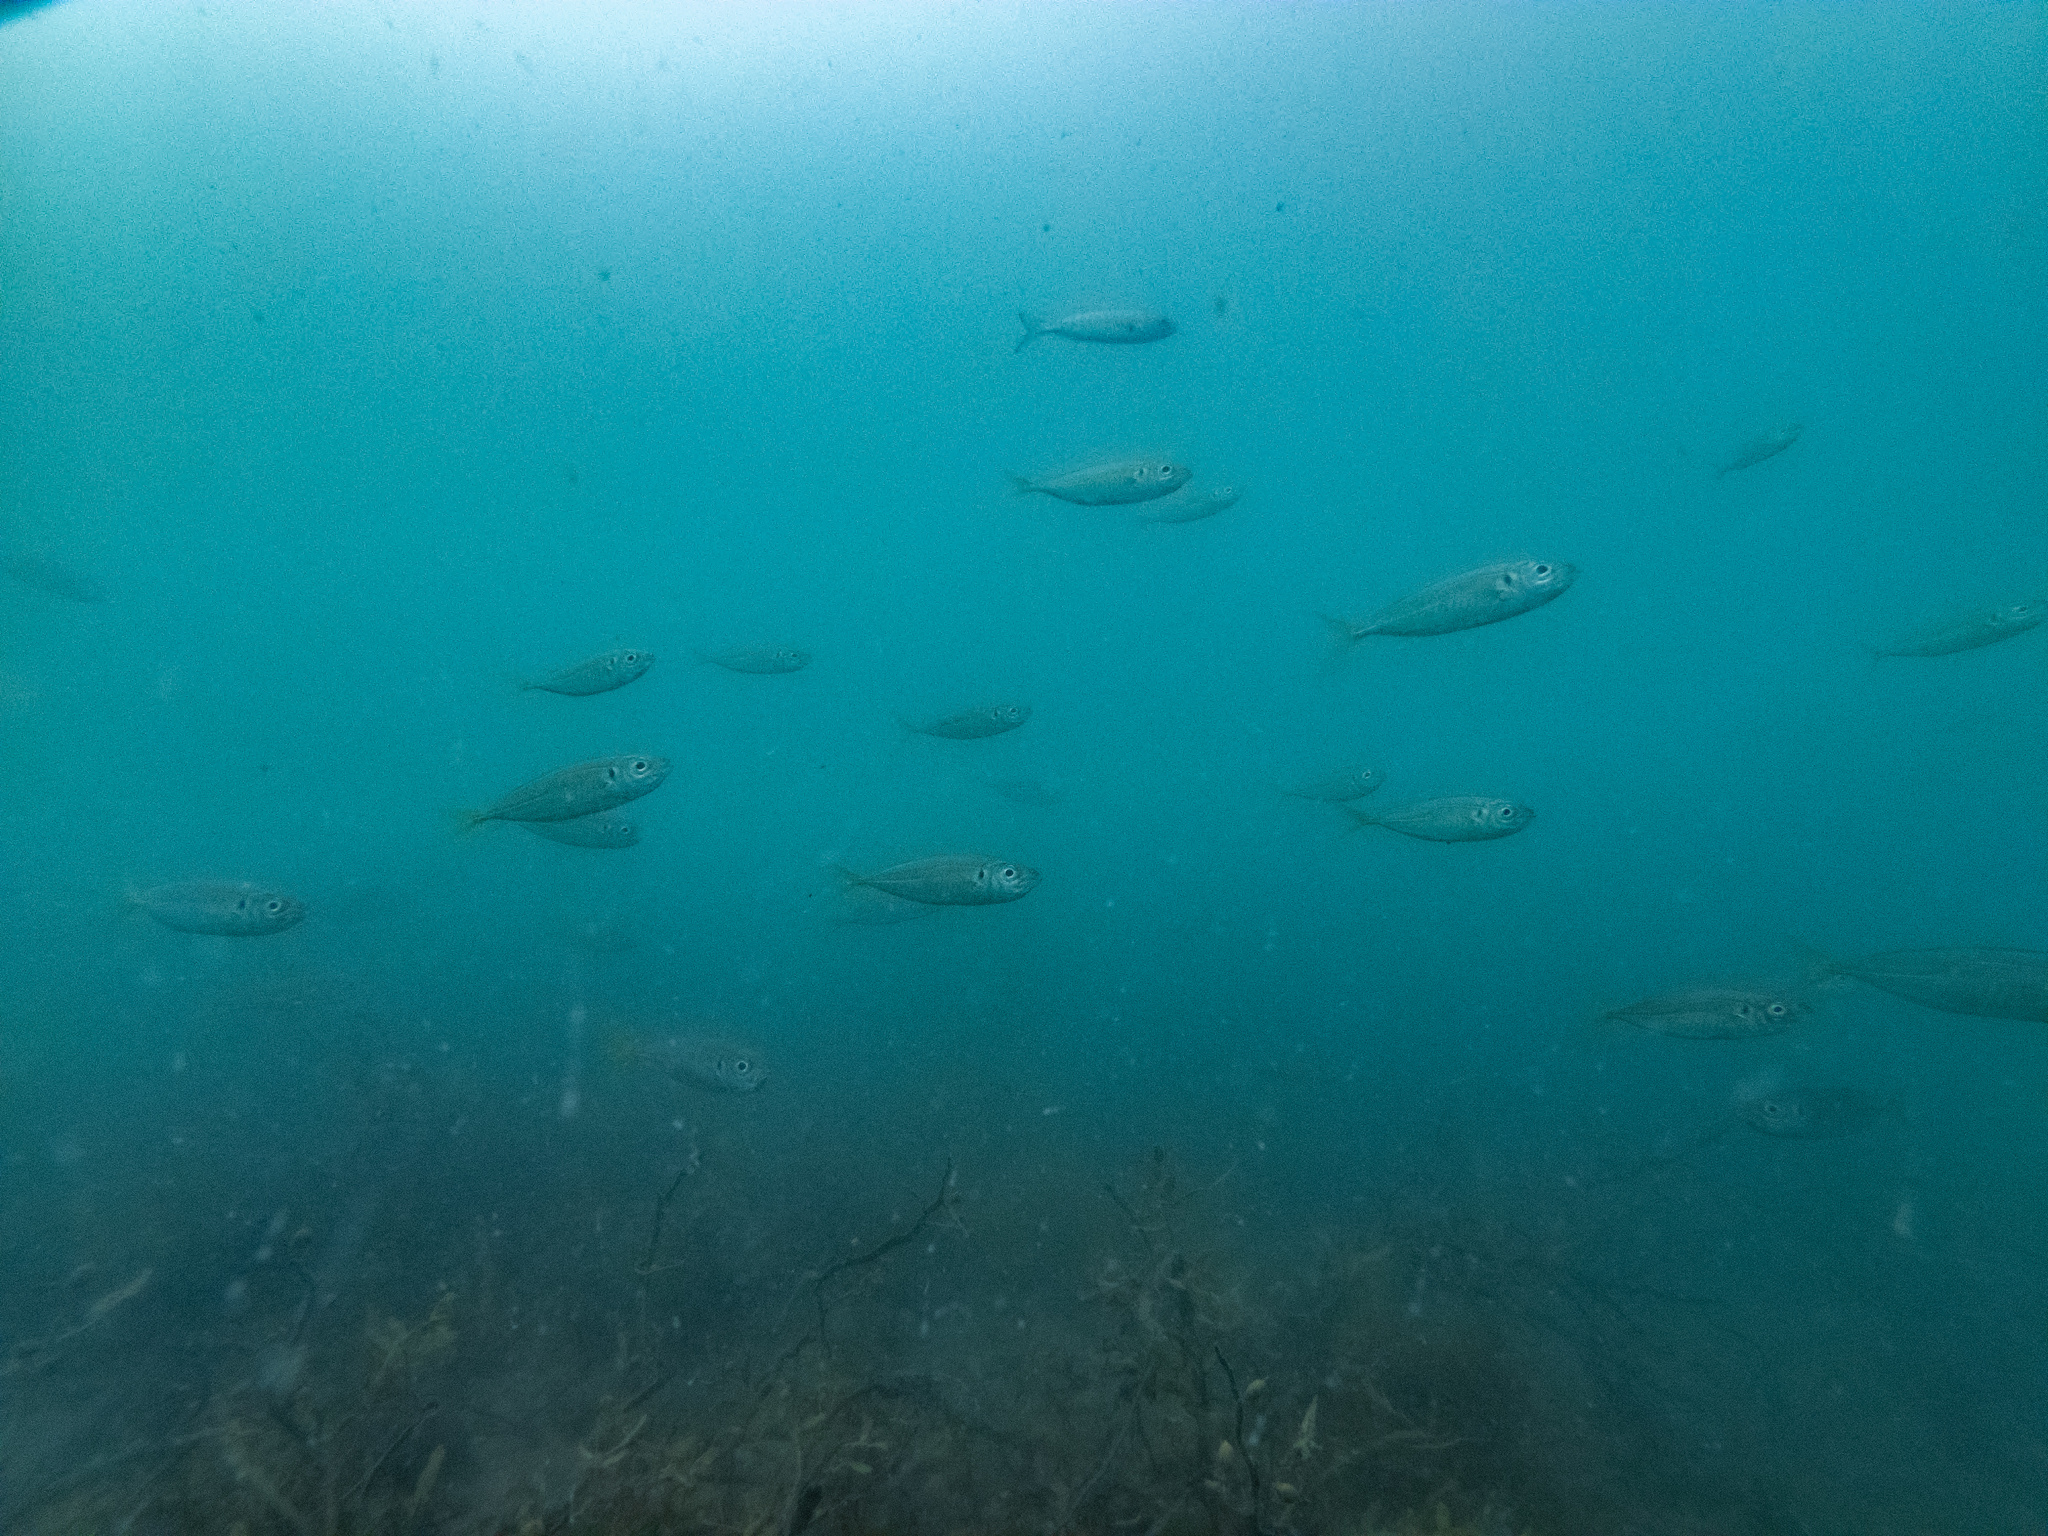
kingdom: Animalia
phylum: Chordata
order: Perciformes
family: Carangidae
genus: Trachurus
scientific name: Trachurus novaezelandiae
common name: Yellowtail horse mackerel
